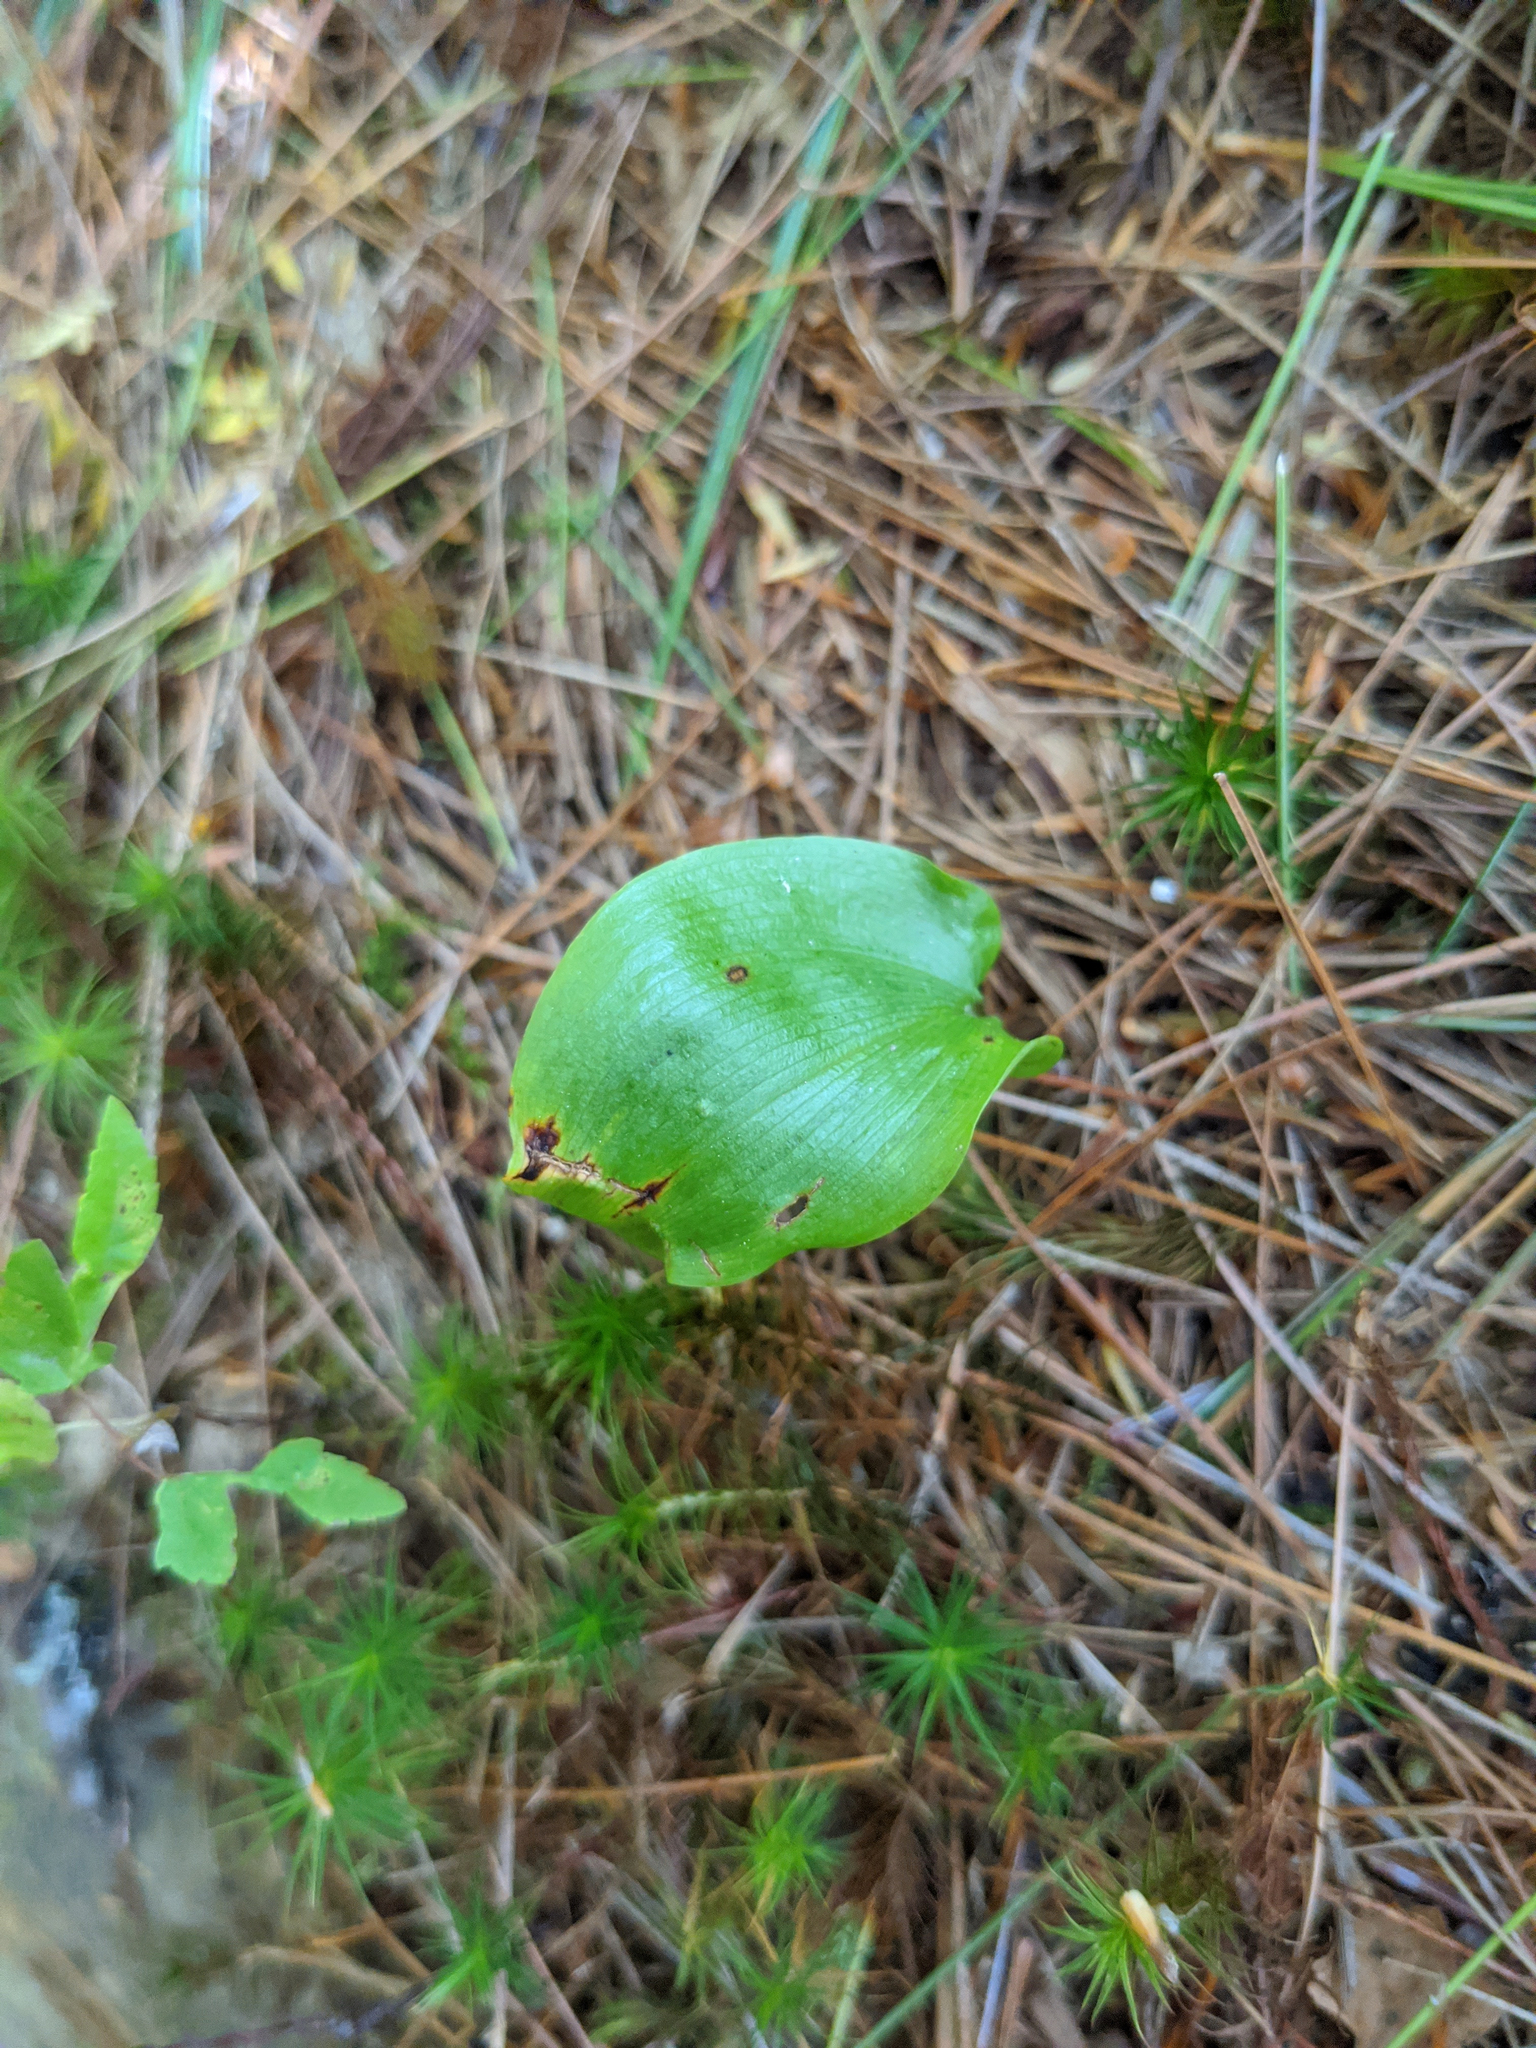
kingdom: Plantae
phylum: Tracheophyta
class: Liliopsida
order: Asparagales
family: Asparagaceae
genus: Maianthemum
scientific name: Maianthemum canadense
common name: False lily-of-the-valley
